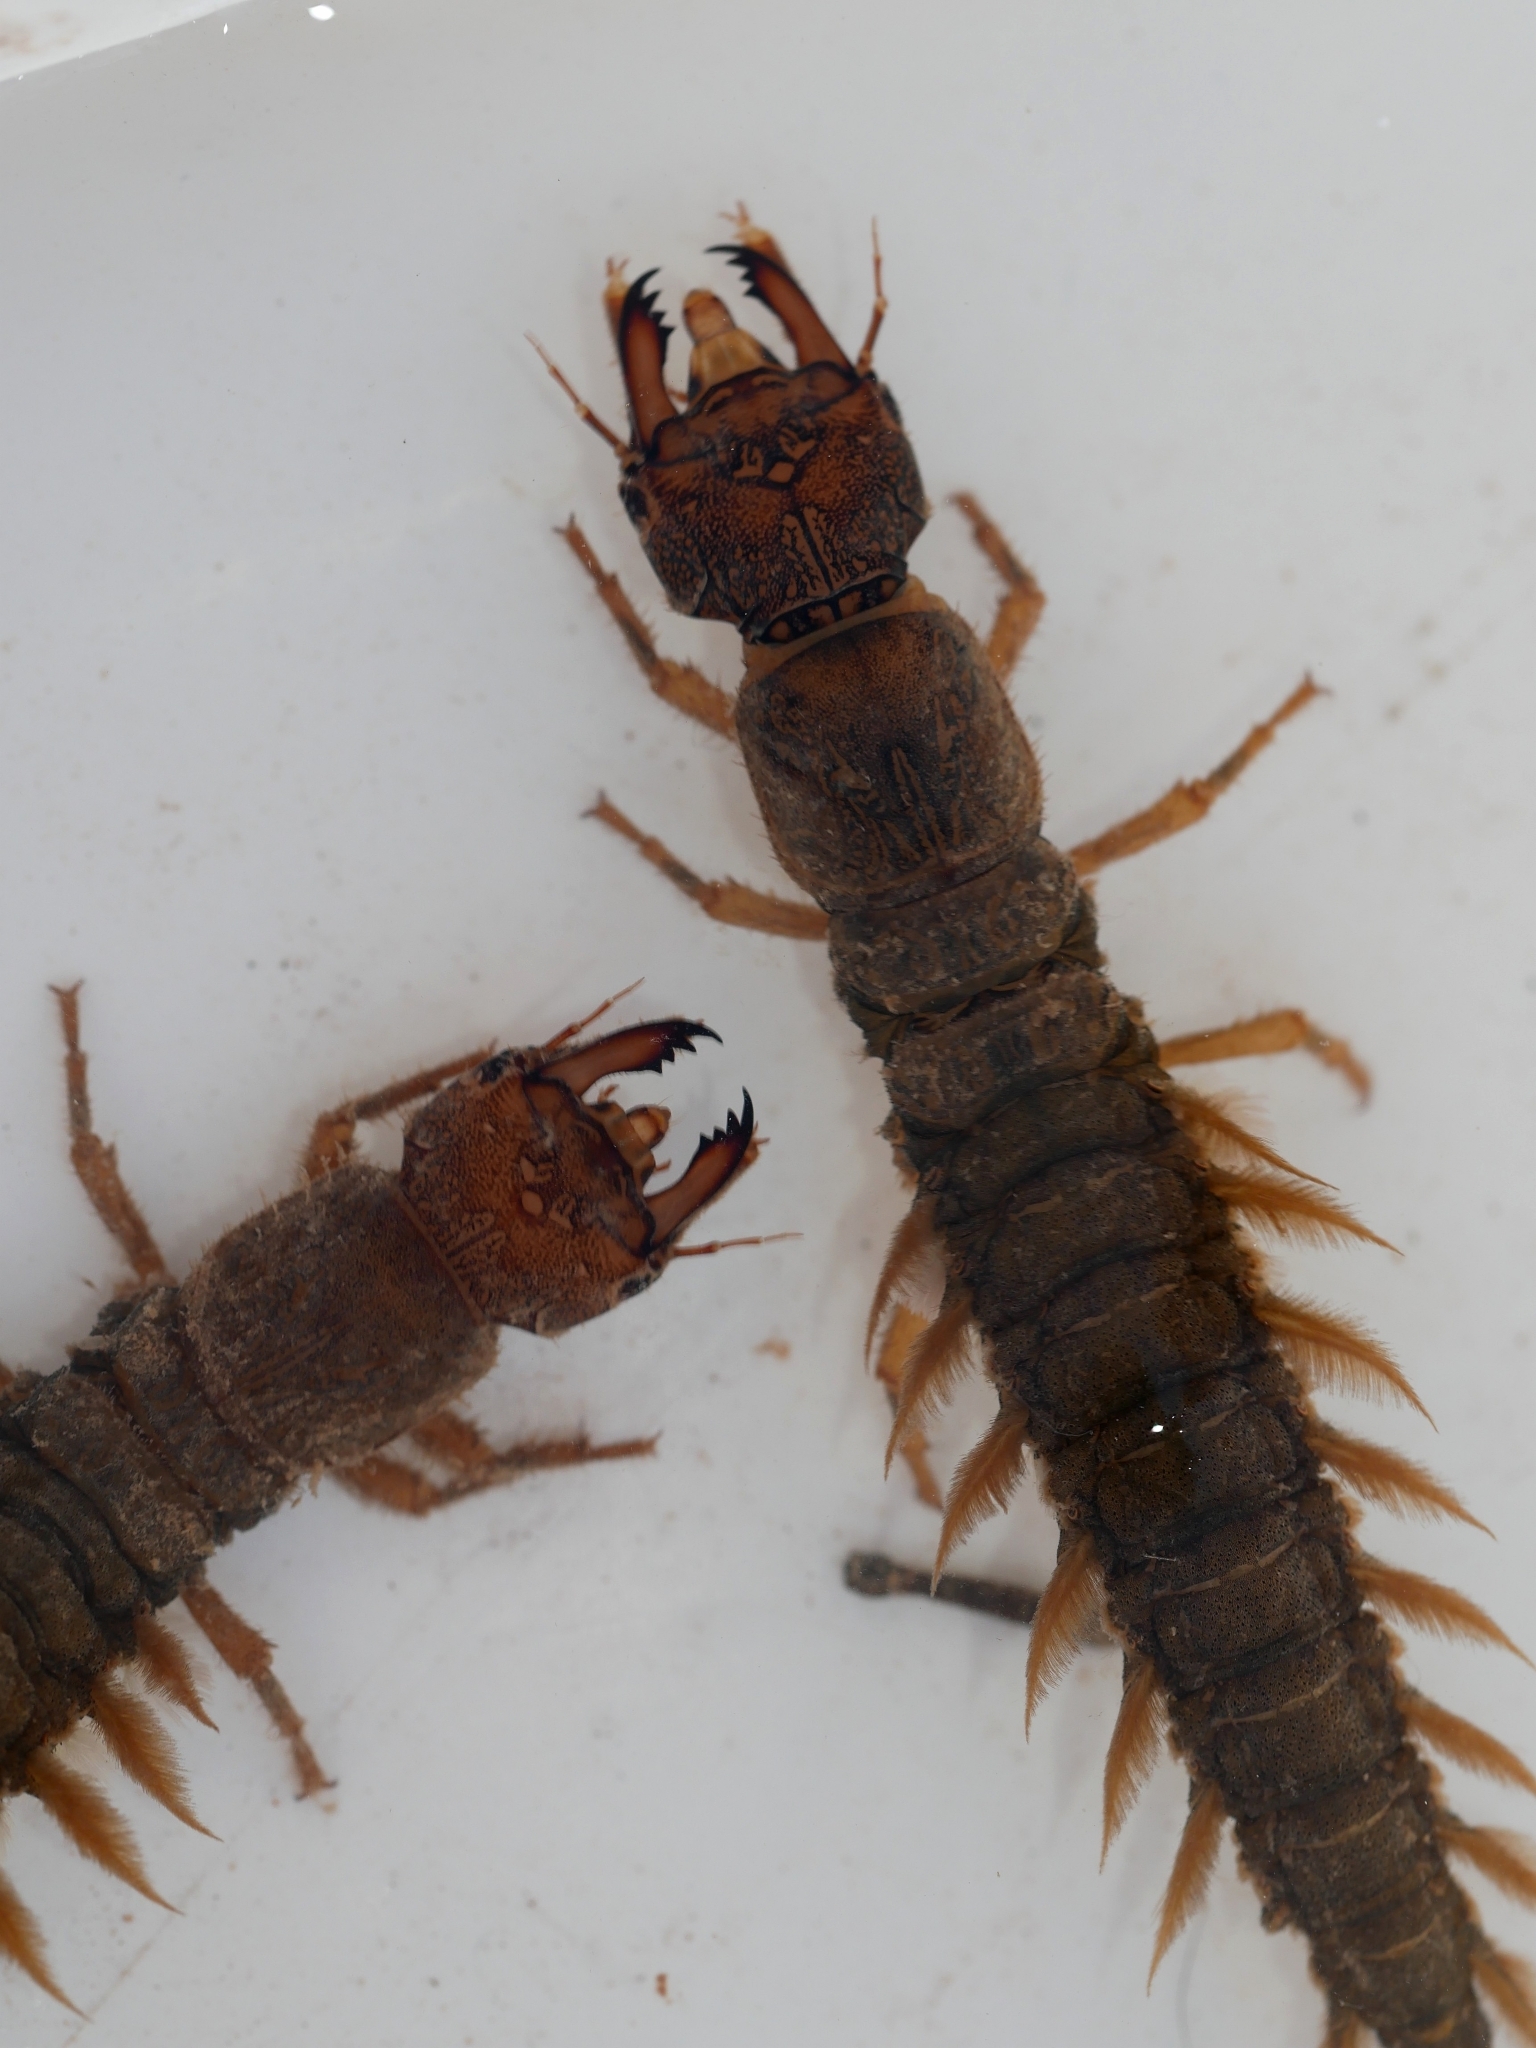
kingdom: Animalia
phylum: Arthropoda
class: Insecta
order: Megaloptera
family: Corydalidae
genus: Corydalus
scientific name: Corydalus texanus
